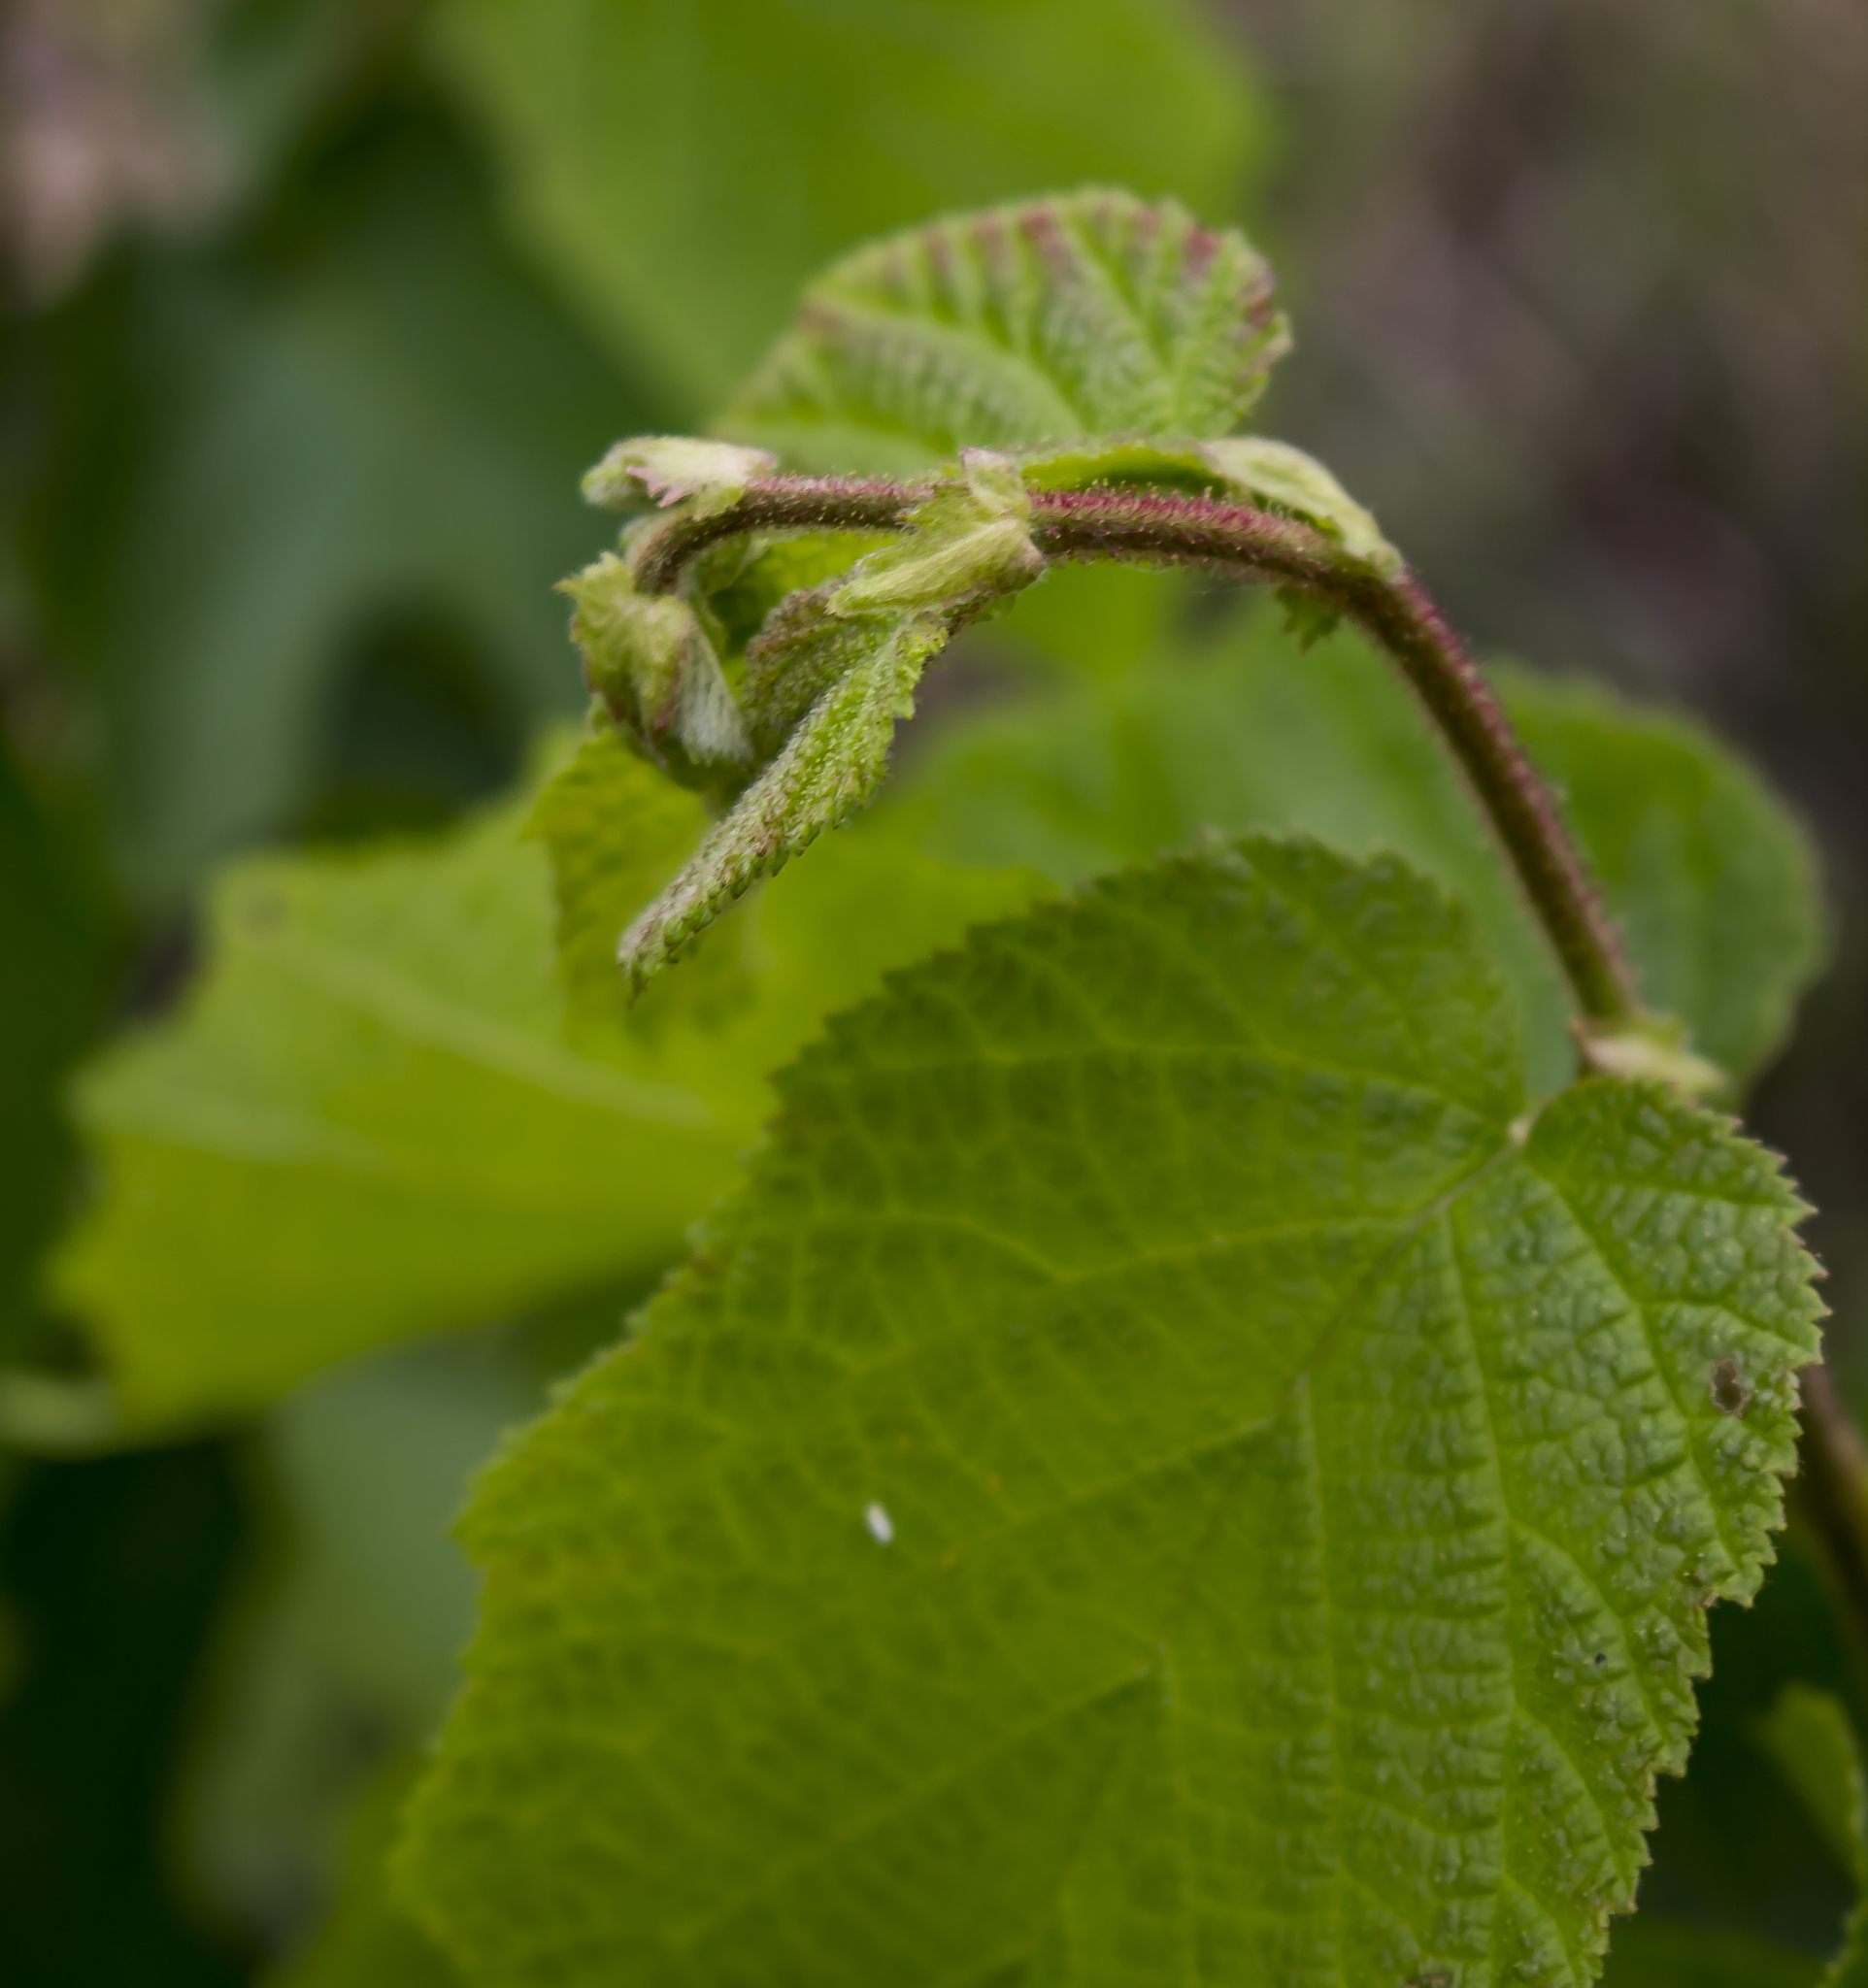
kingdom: Plantae
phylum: Tracheophyta
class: Magnoliopsida
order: Fagales
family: Betulaceae
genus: Corylus
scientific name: Corylus americana
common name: American hazel
